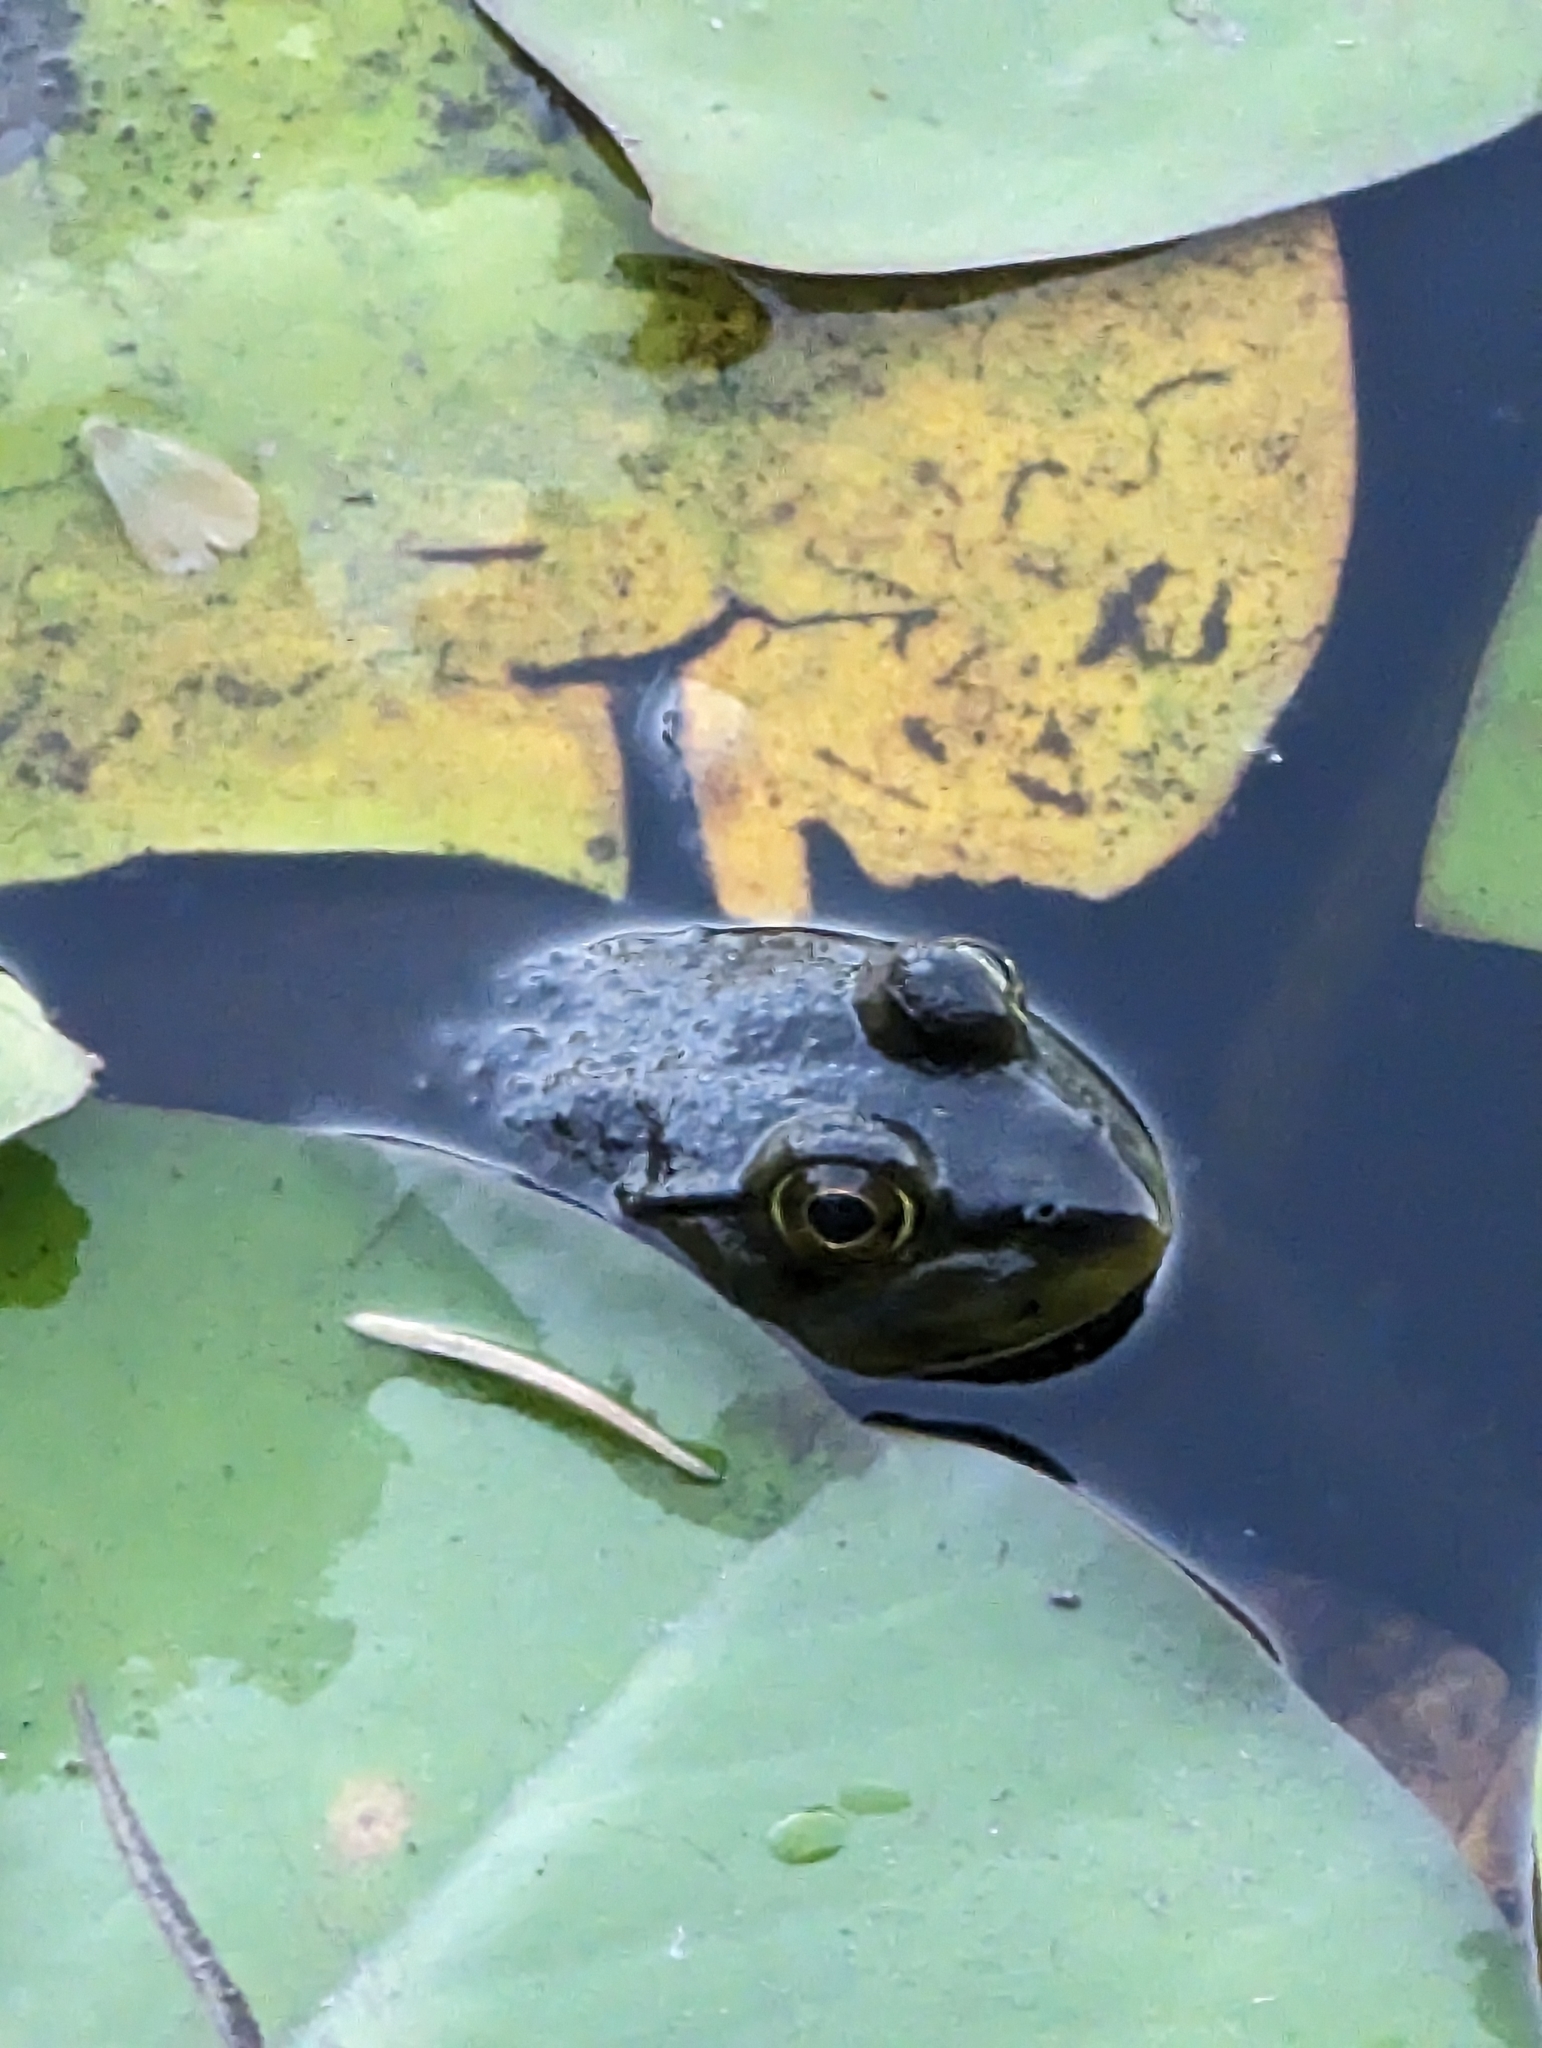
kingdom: Animalia
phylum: Chordata
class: Amphibia
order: Anura
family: Ranidae
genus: Lithobates
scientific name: Lithobates clamitans
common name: Green frog
